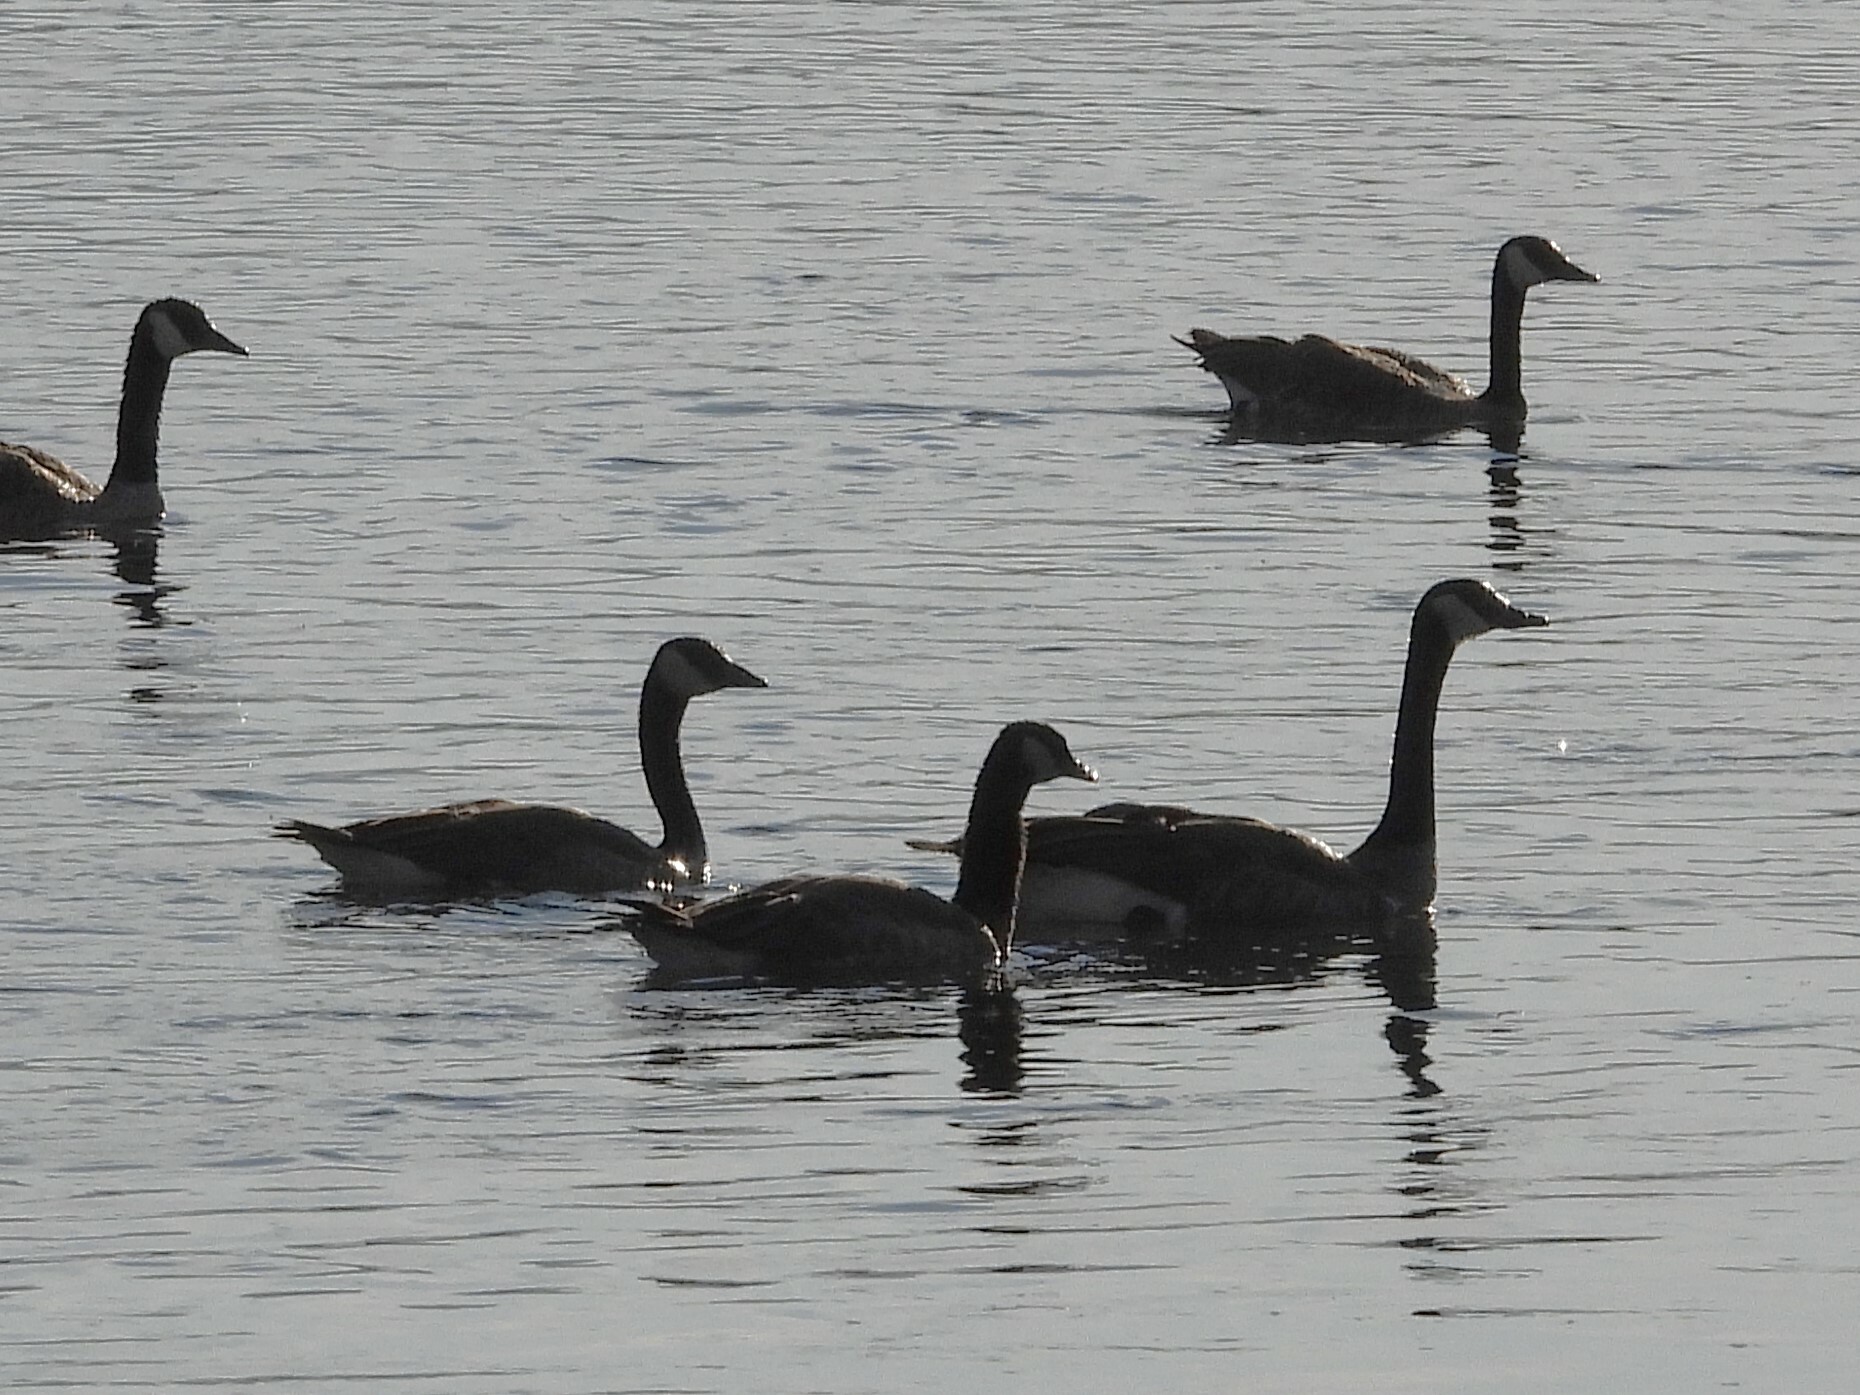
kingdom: Animalia
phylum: Chordata
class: Aves
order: Anseriformes
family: Anatidae
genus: Branta
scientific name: Branta canadensis
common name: Canada goose
